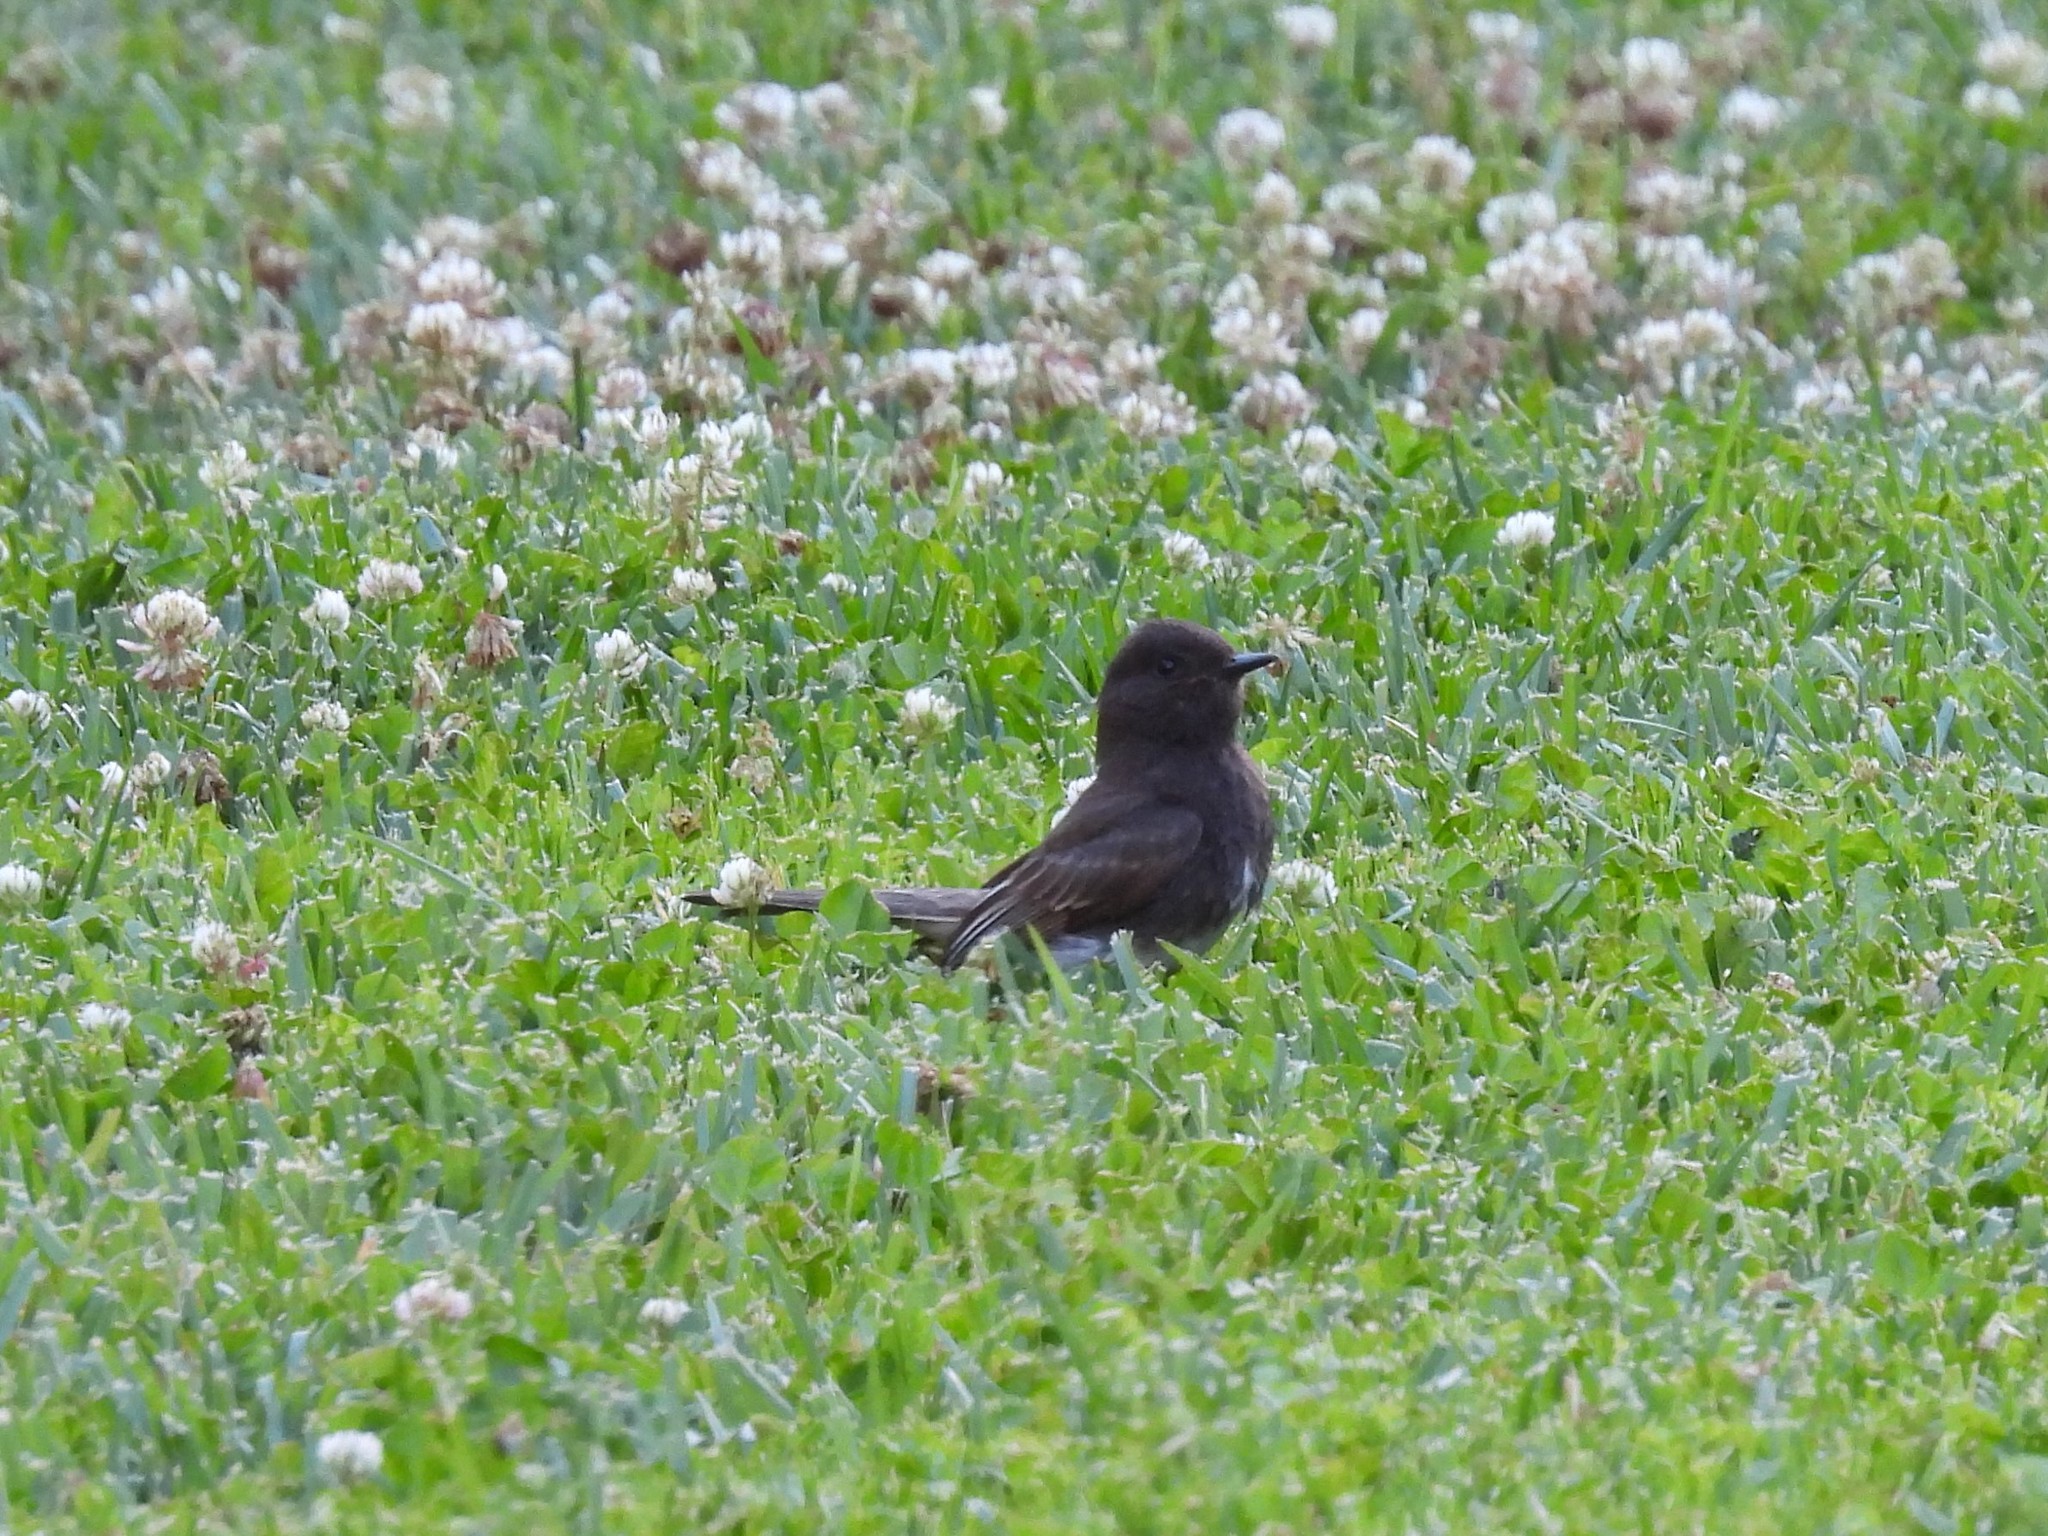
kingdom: Animalia
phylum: Chordata
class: Aves
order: Passeriformes
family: Tyrannidae
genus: Sayornis
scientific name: Sayornis nigricans
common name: Black phoebe
